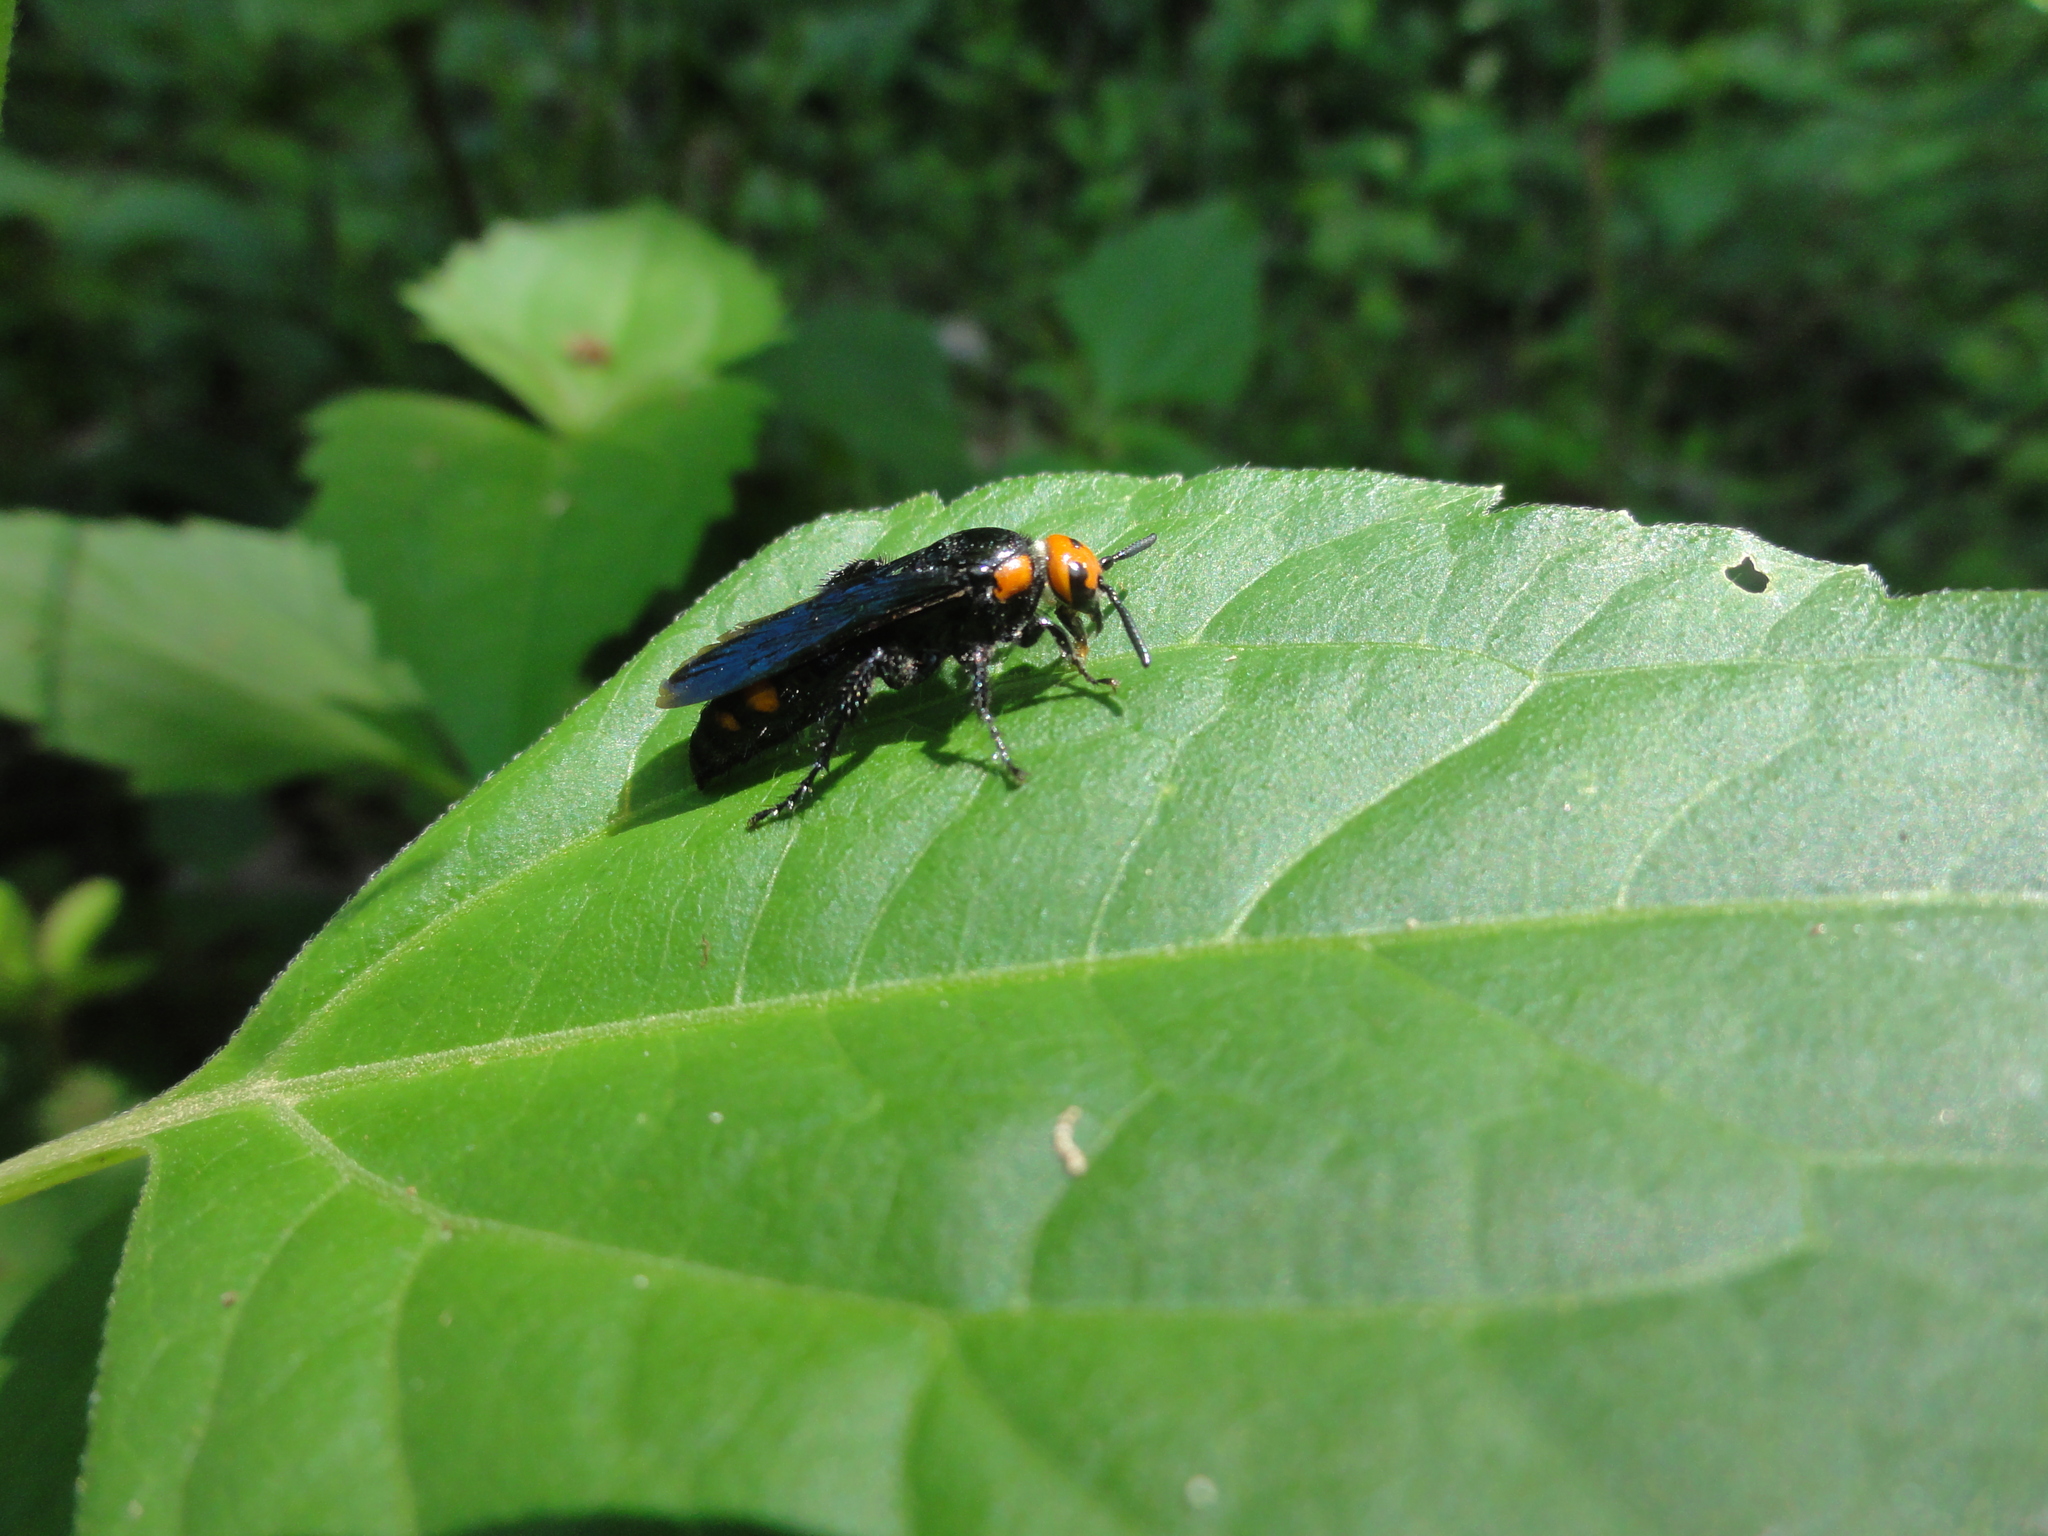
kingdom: Animalia
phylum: Arthropoda
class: Insecta
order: Hymenoptera
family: Scoliidae
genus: Scolia
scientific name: Scolia binotata
